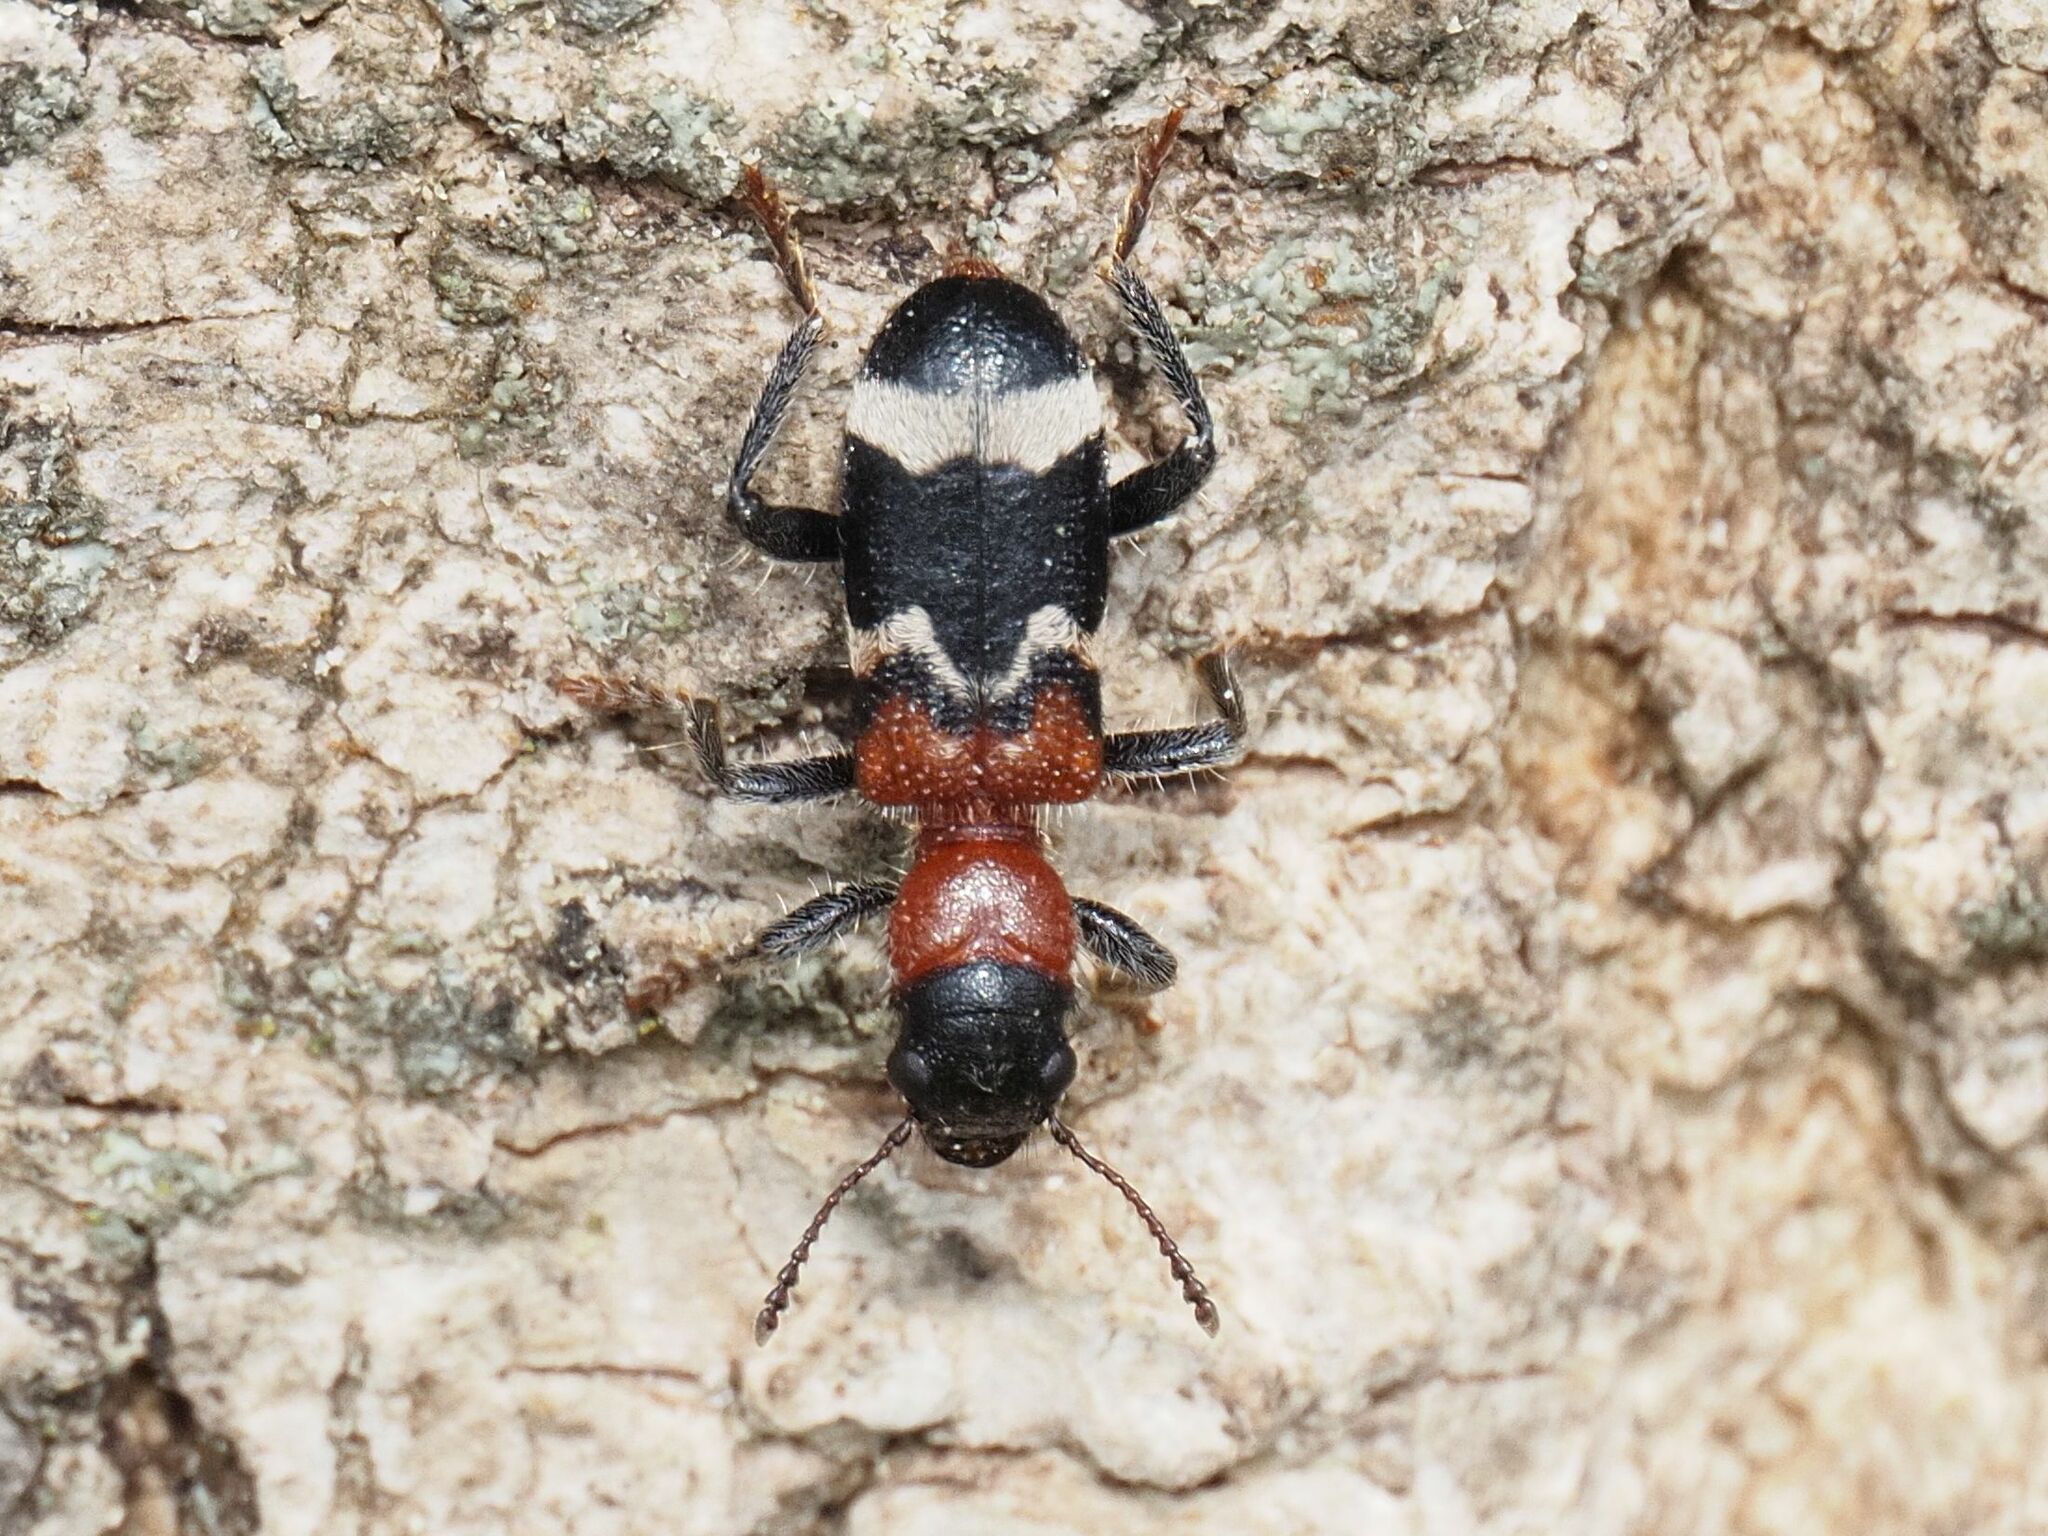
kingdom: Animalia
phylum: Arthropoda
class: Insecta
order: Coleoptera
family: Cleridae
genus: Thanasimus
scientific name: Thanasimus formicarius
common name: Ant beetle
